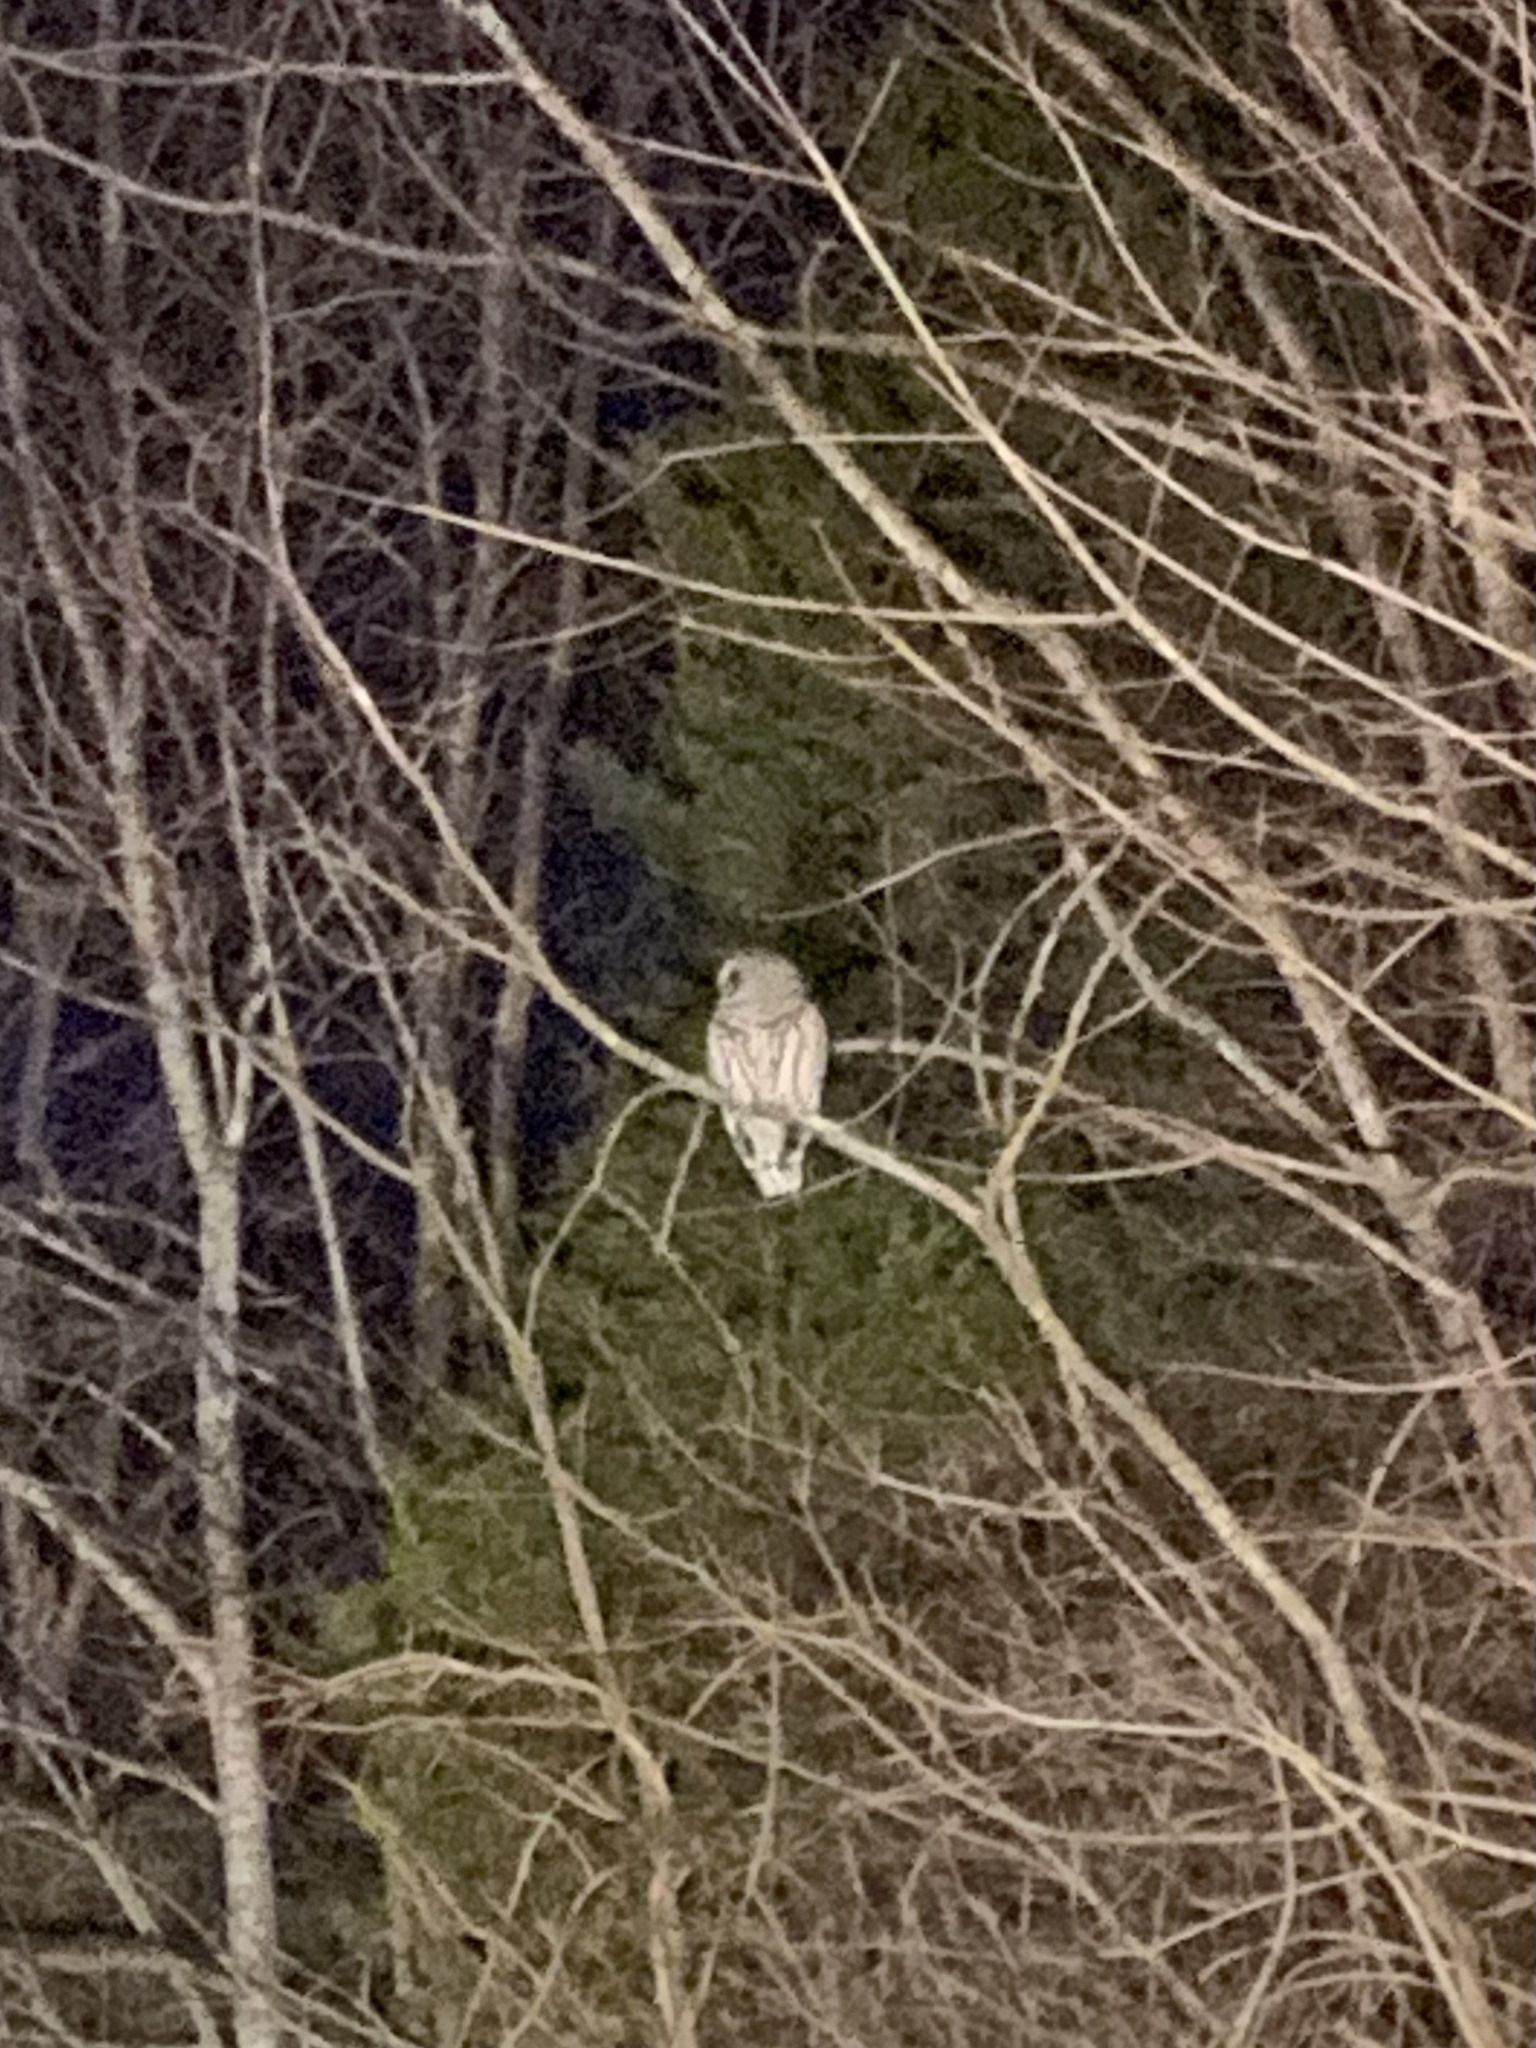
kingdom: Animalia
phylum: Chordata
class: Aves
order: Strigiformes
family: Strigidae
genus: Strix
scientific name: Strix varia
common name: Barred owl
